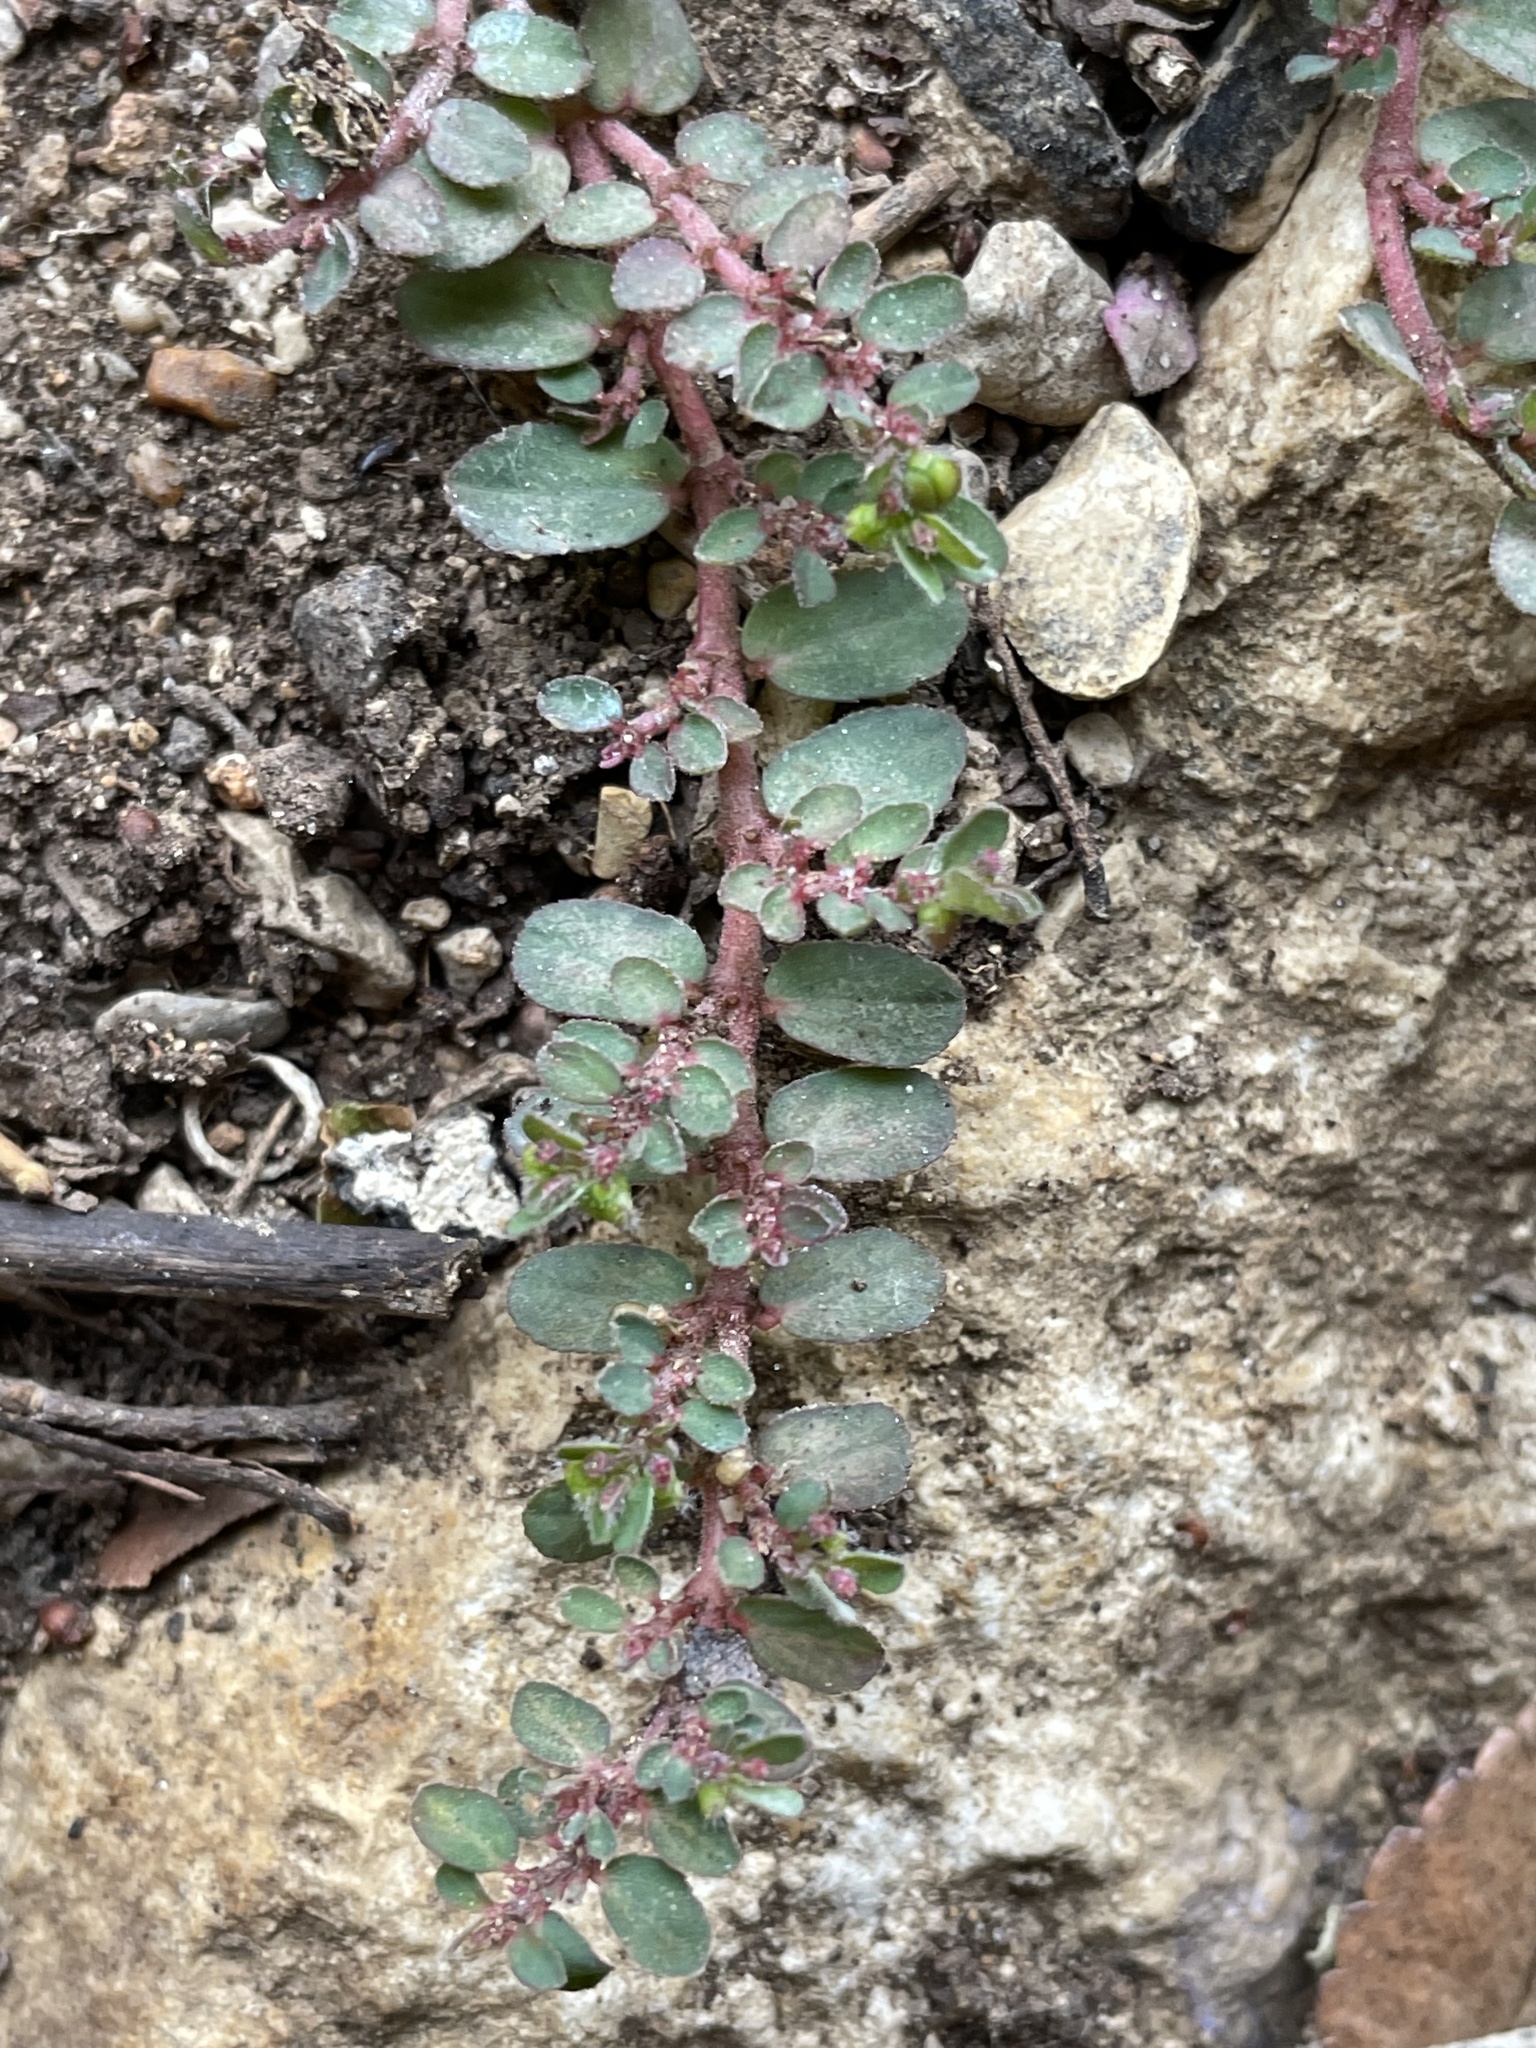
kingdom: Plantae
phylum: Tracheophyta
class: Magnoliopsida
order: Malpighiales
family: Euphorbiaceae
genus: Euphorbia
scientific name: Euphorbia prostrata
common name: Prostrate sandmat
